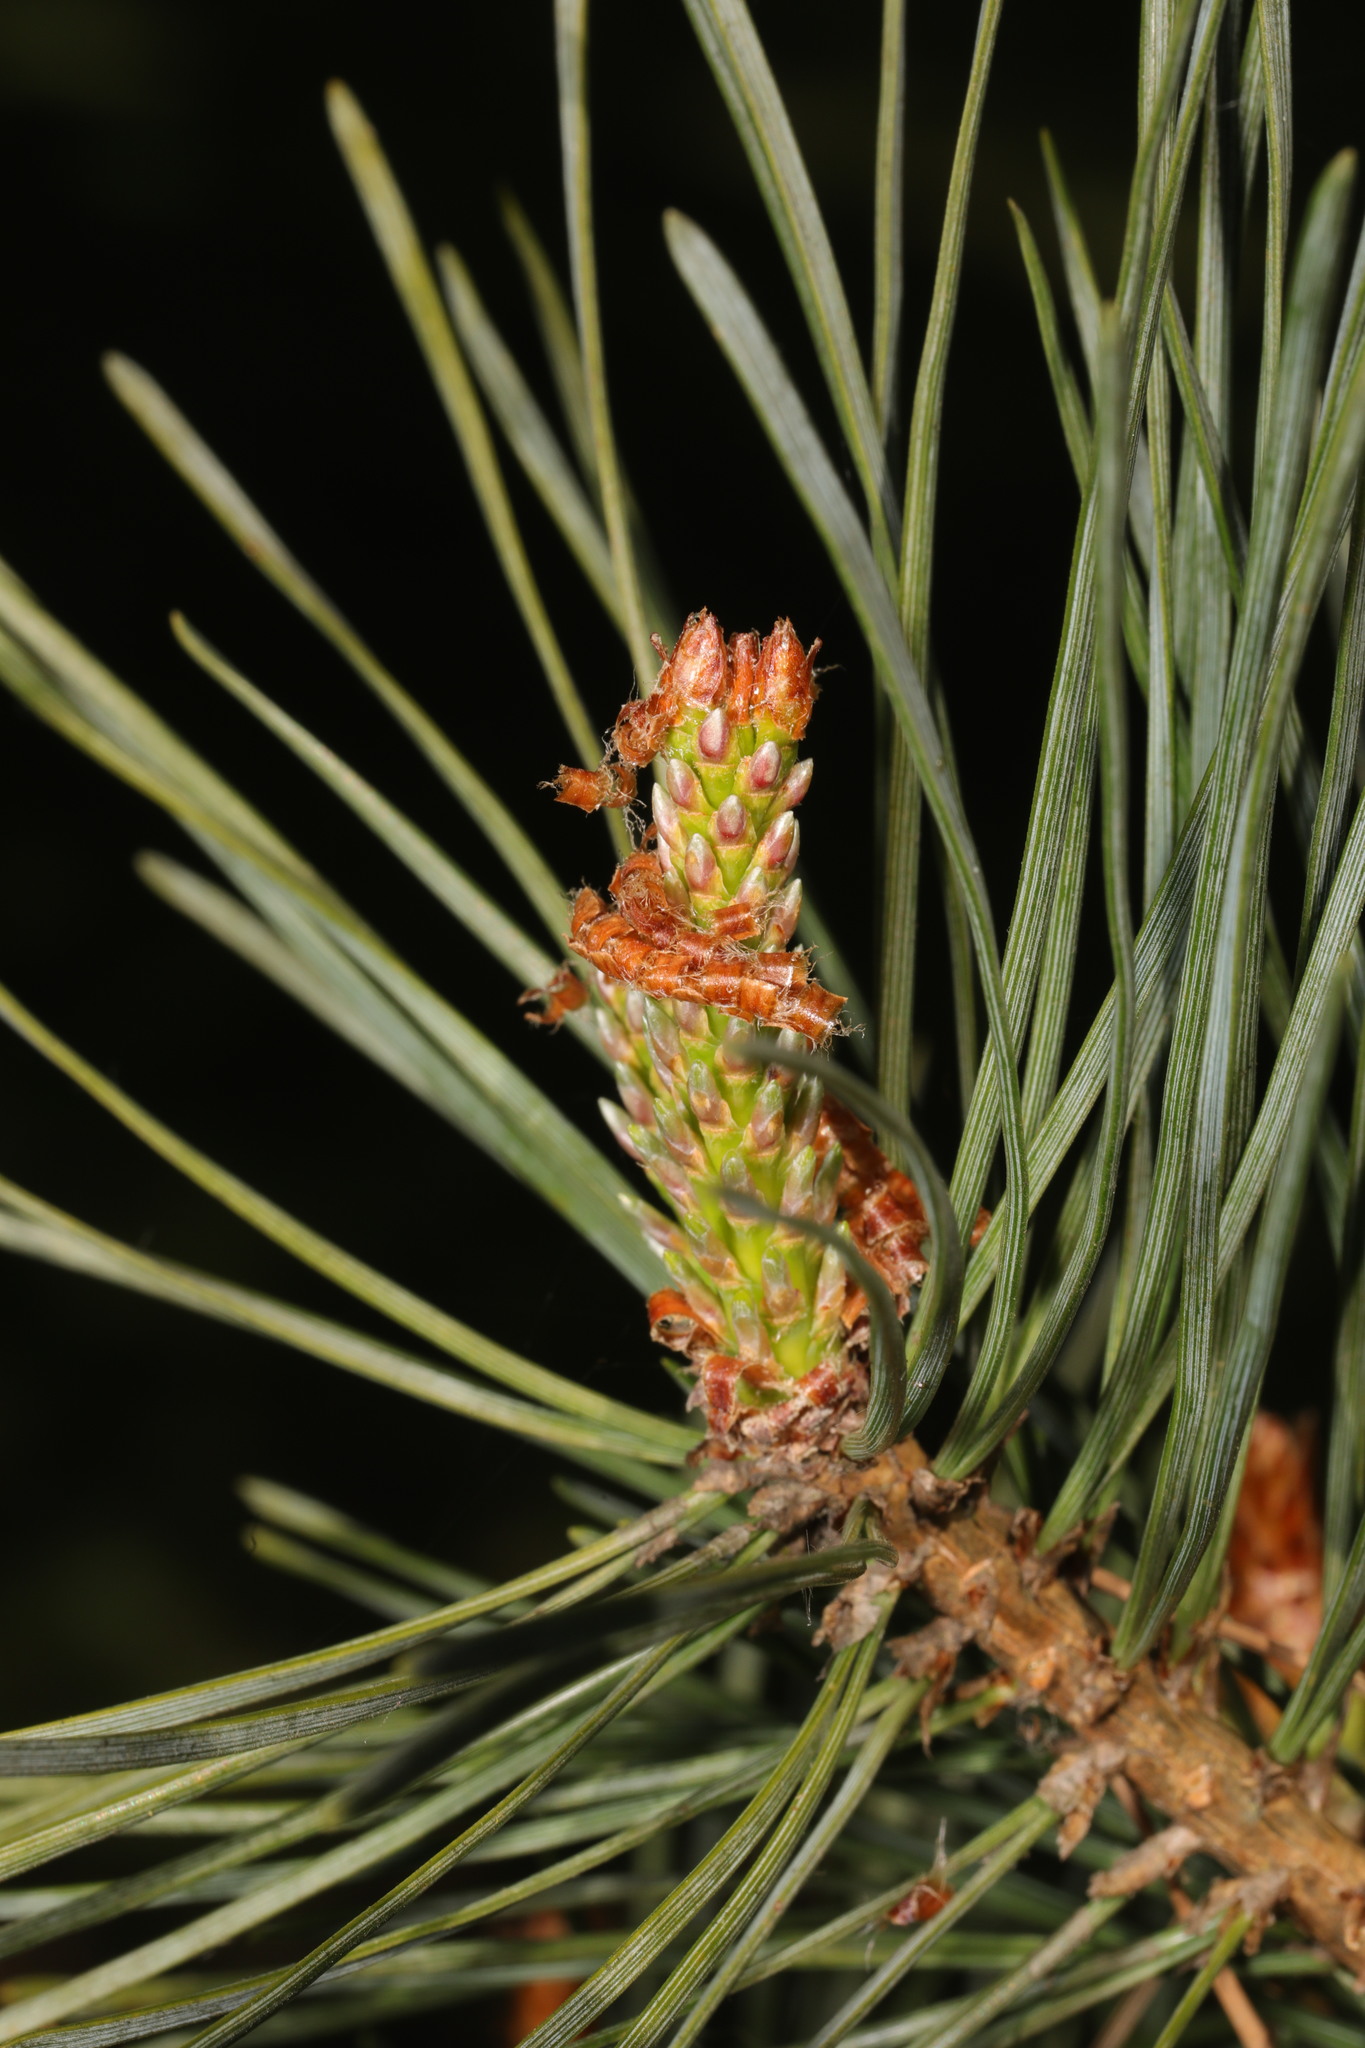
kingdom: Plantae
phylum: Tracheophyta
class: Pinopsida
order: Pinales
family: Pinaceae
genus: Pinus
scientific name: Pinus sylvestris
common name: Scots pine
